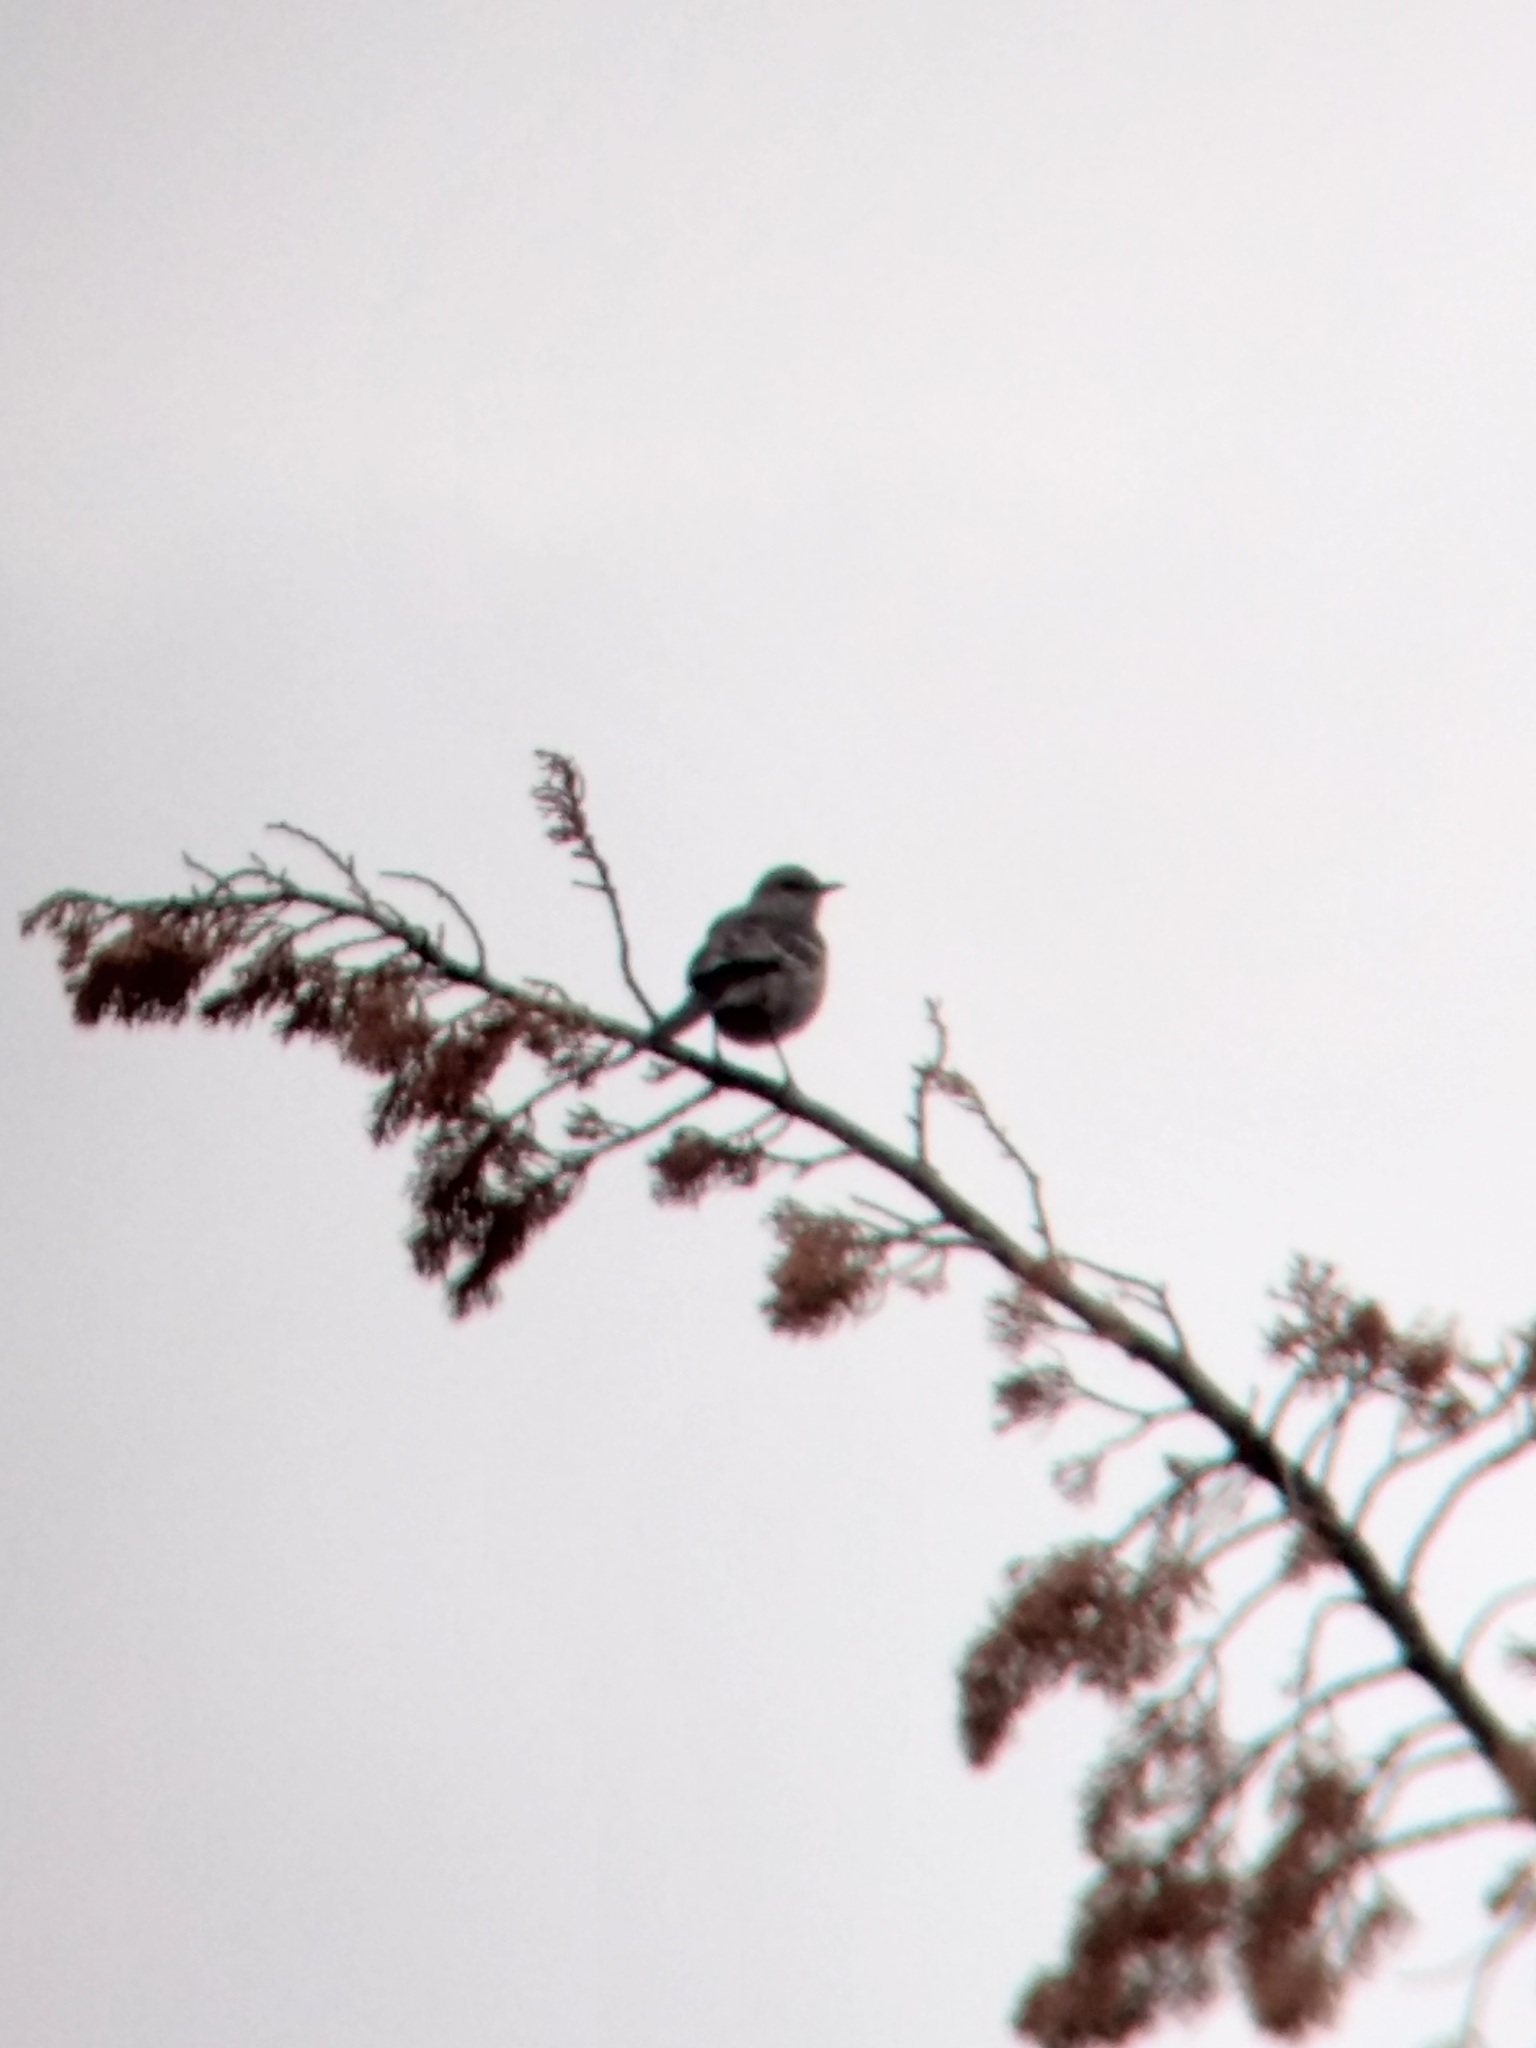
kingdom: Animalia
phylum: Chordata
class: Aves
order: Passeriformes
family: Mimidae
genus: Mimus
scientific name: Mimus polyglottos
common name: Northern mockingbird
